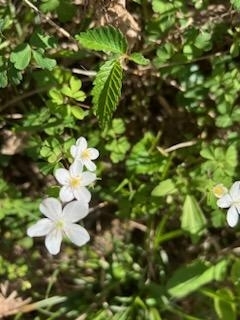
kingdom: Plantae
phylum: Tracheophyta
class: Magnoliopsida
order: Ranunculales
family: Ranunculaceae
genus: Enemion
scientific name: Enemion biternatum
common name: Eastern false rue-anemone
